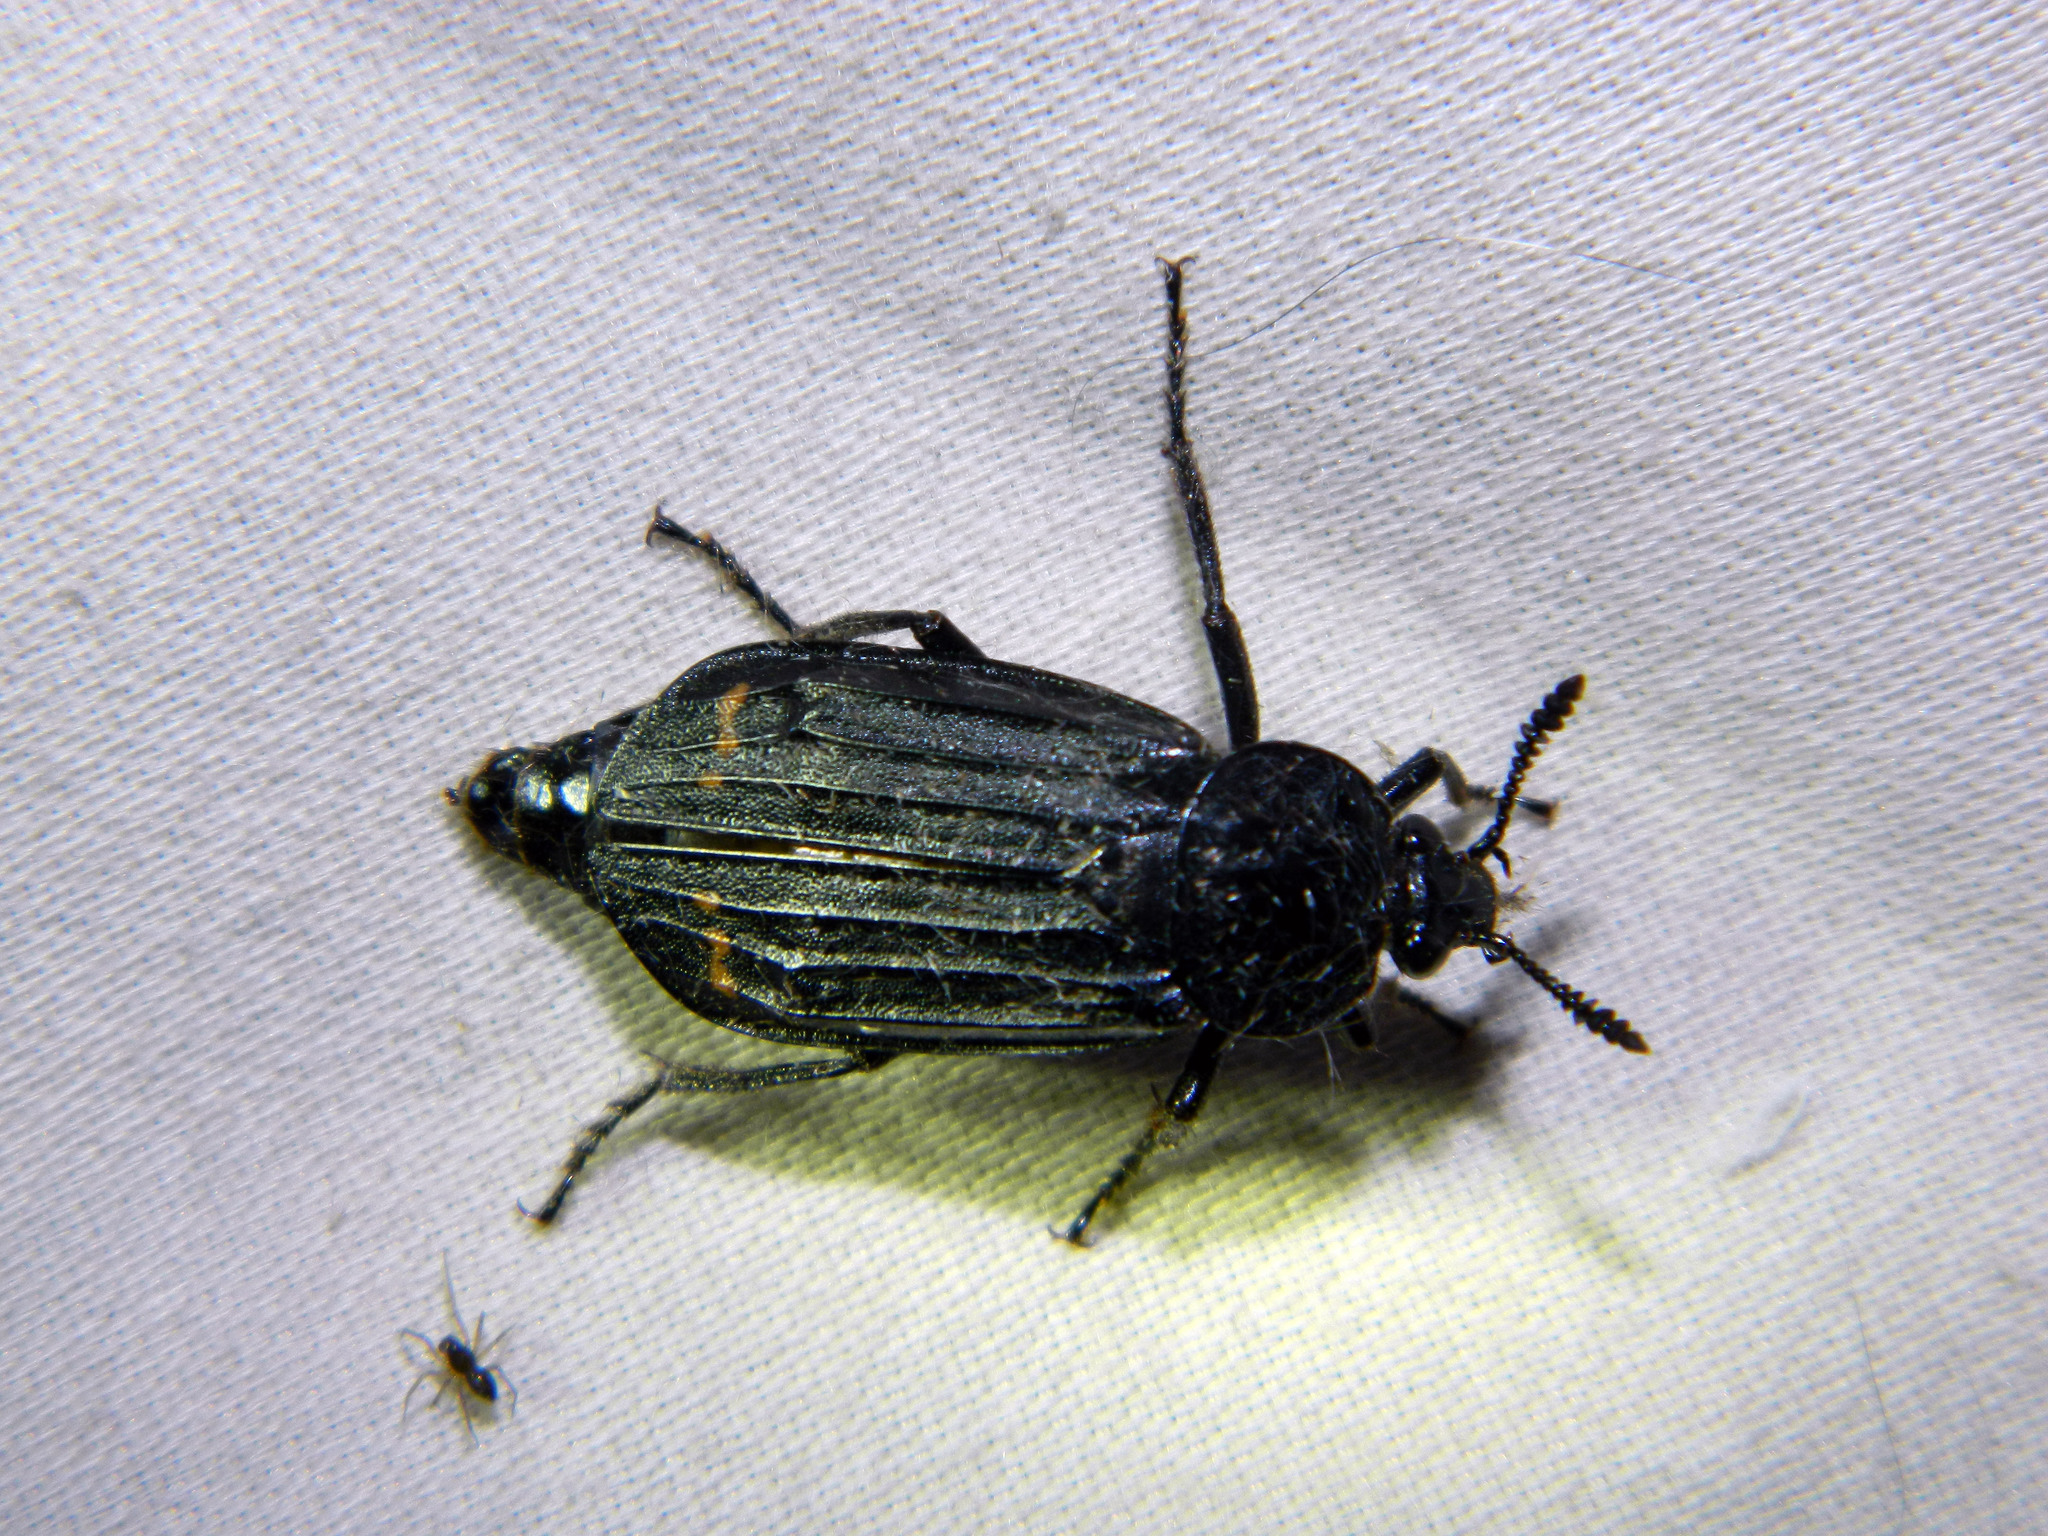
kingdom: Animalia
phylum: Arthropoda
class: Insecta
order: Coleoptera
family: Staphylinidae
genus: Necrodes
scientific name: Necrodes surinamensis
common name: Red-lined carrion beetle
